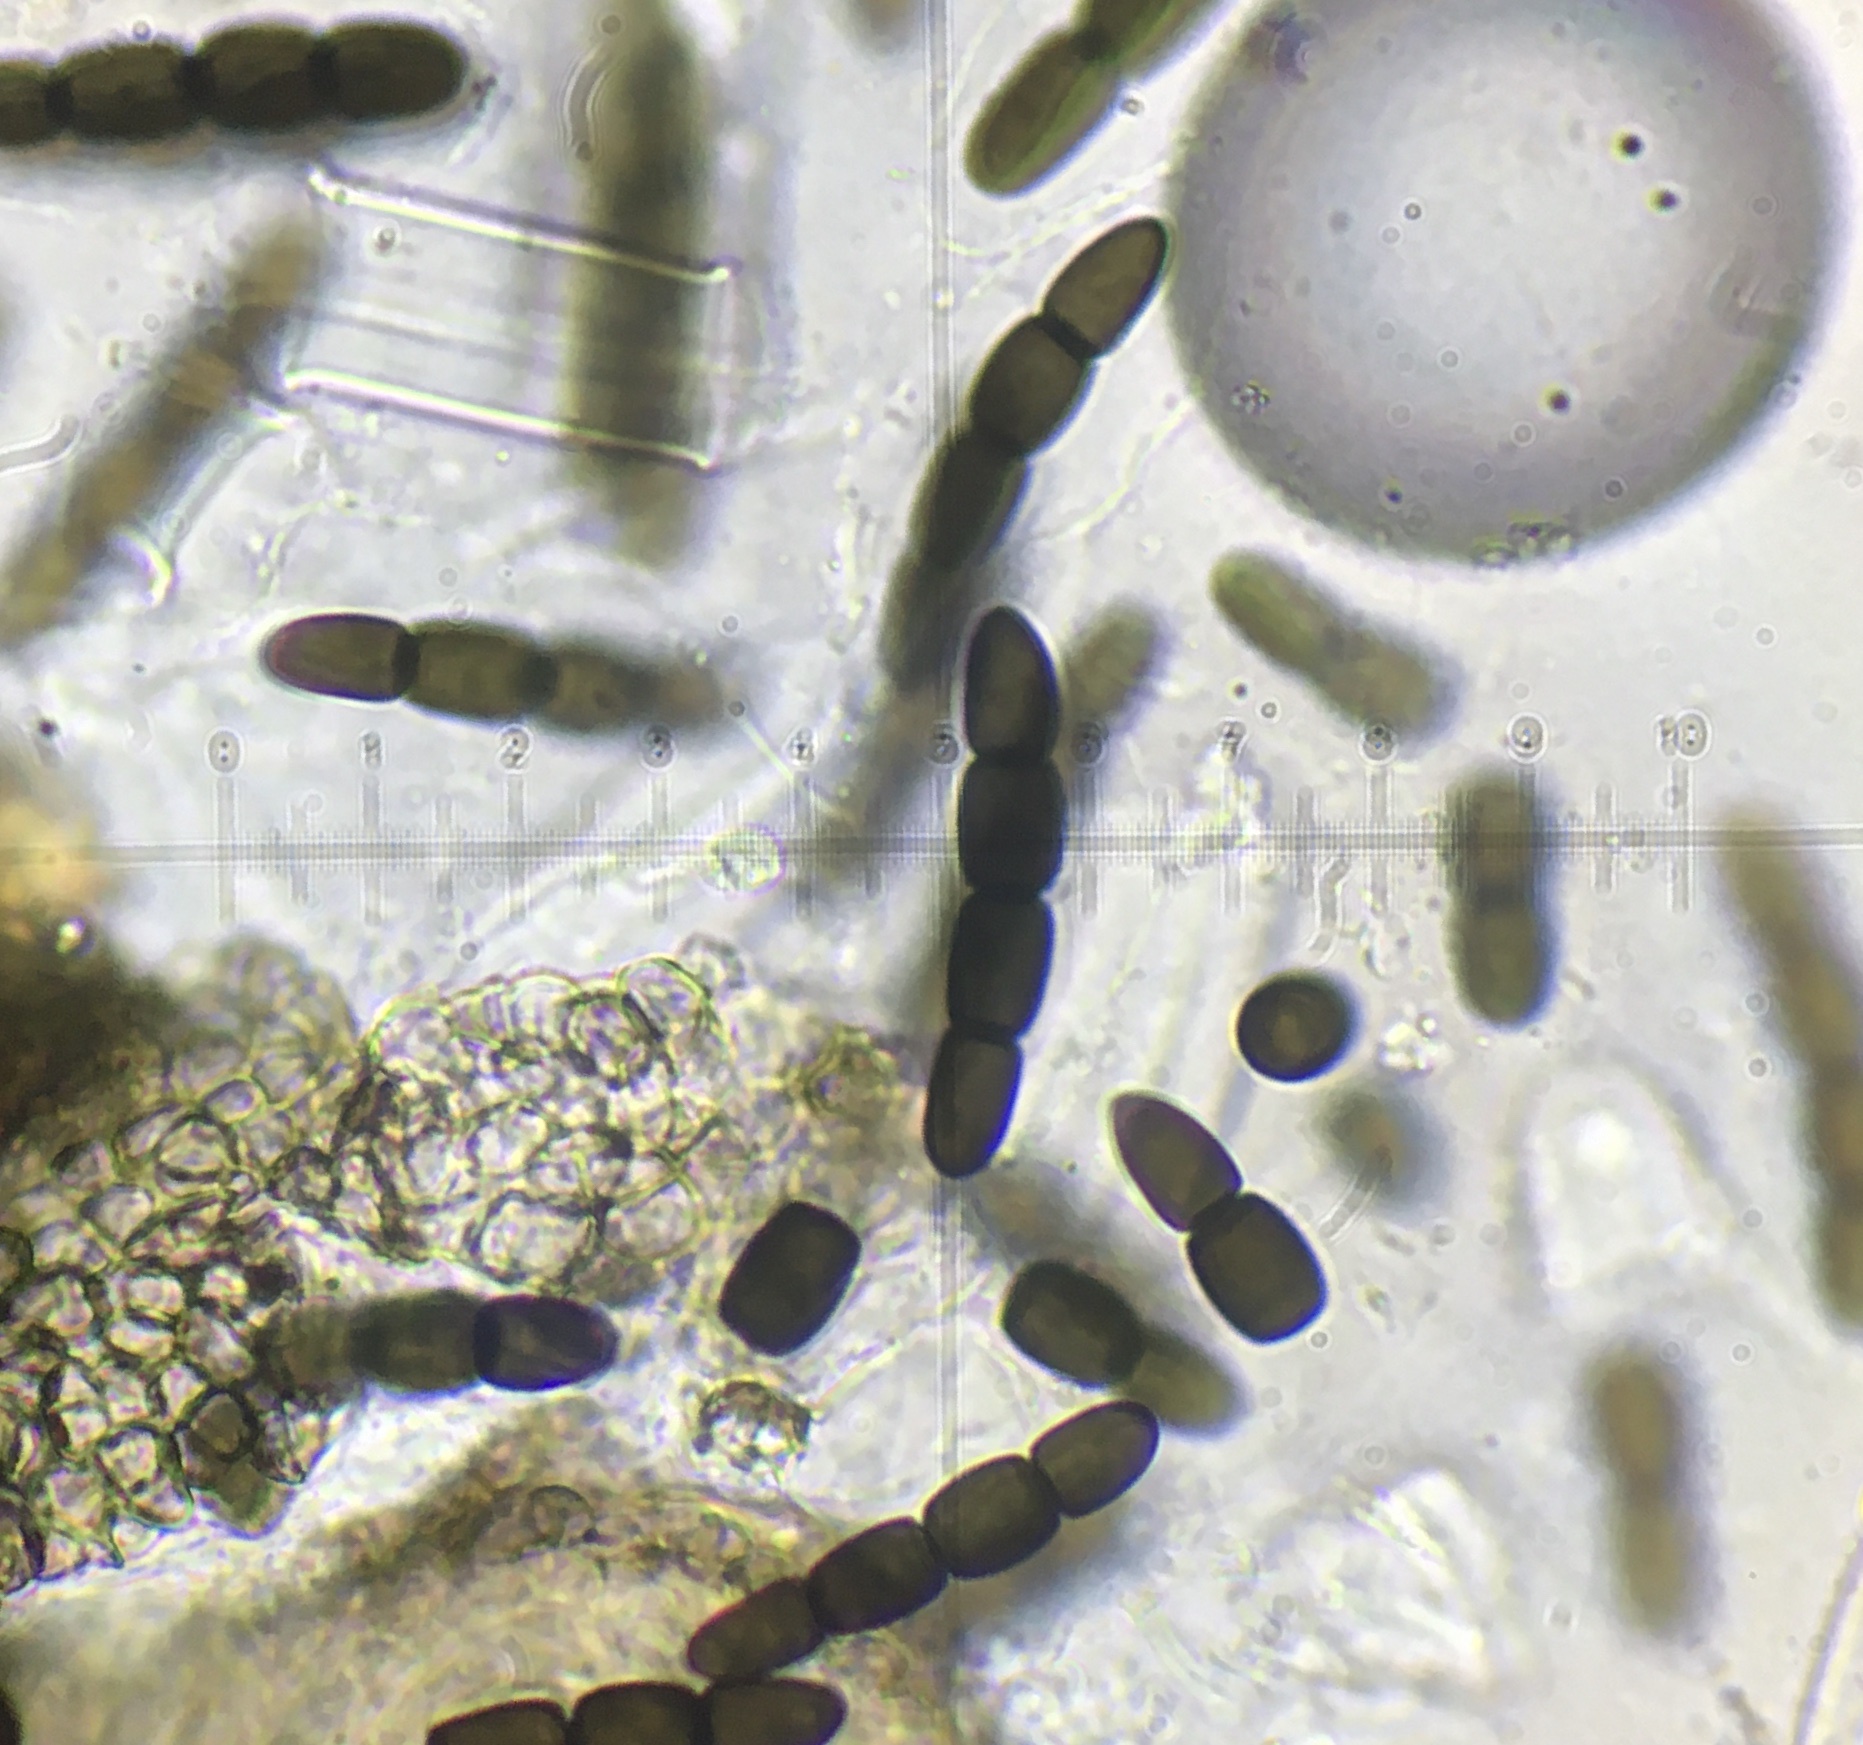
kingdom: Fungi
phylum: Ascomycota
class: Dothideomycetes
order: Pleosporales
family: Sporormiaceae
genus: Sporormiella
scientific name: Sporormiella australis
